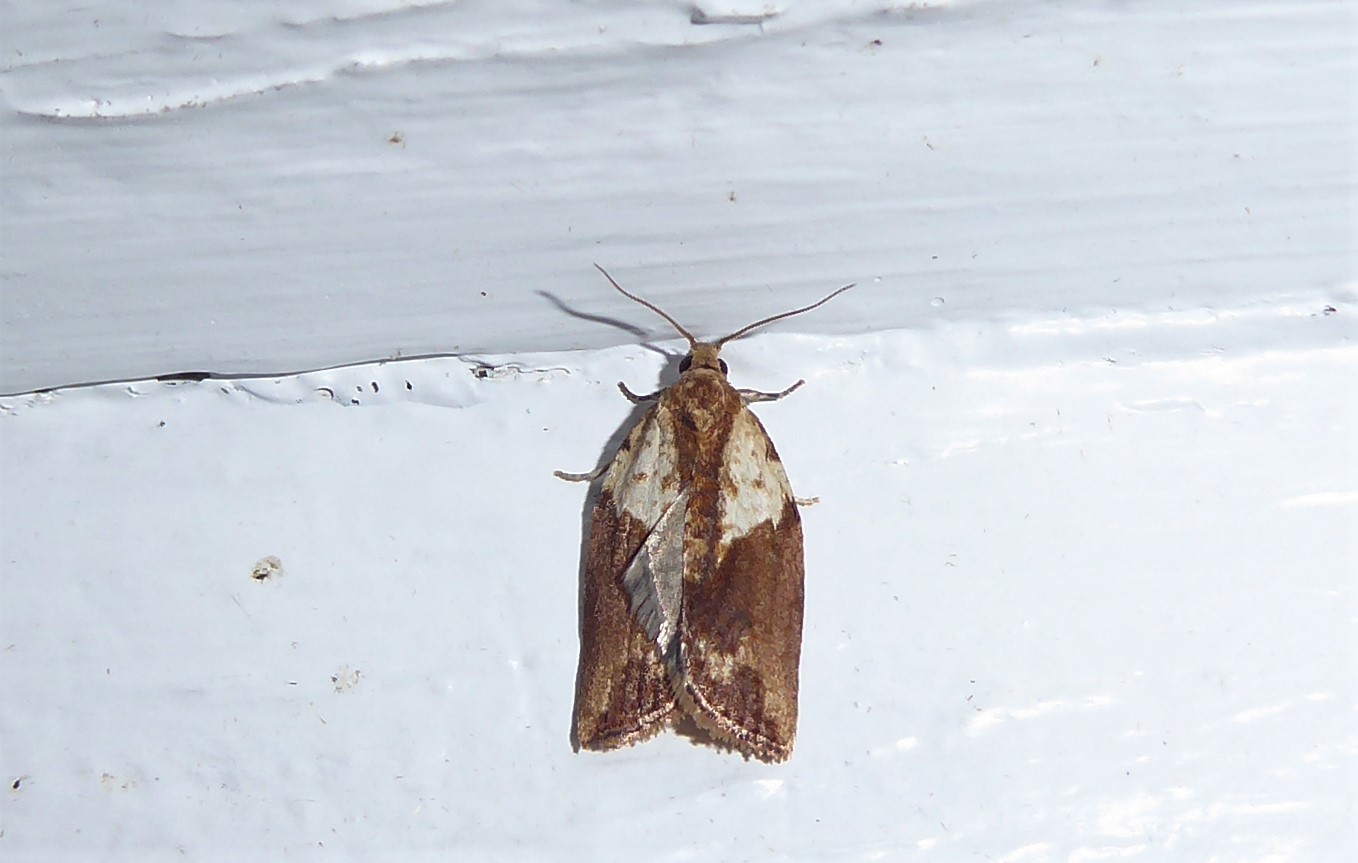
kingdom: Animalia
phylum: Arthropoda
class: Insecta
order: Lepidoptera
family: Tortricidae
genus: Epiphyas
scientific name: Epiphyas postvittana
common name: Light brown apple moth
